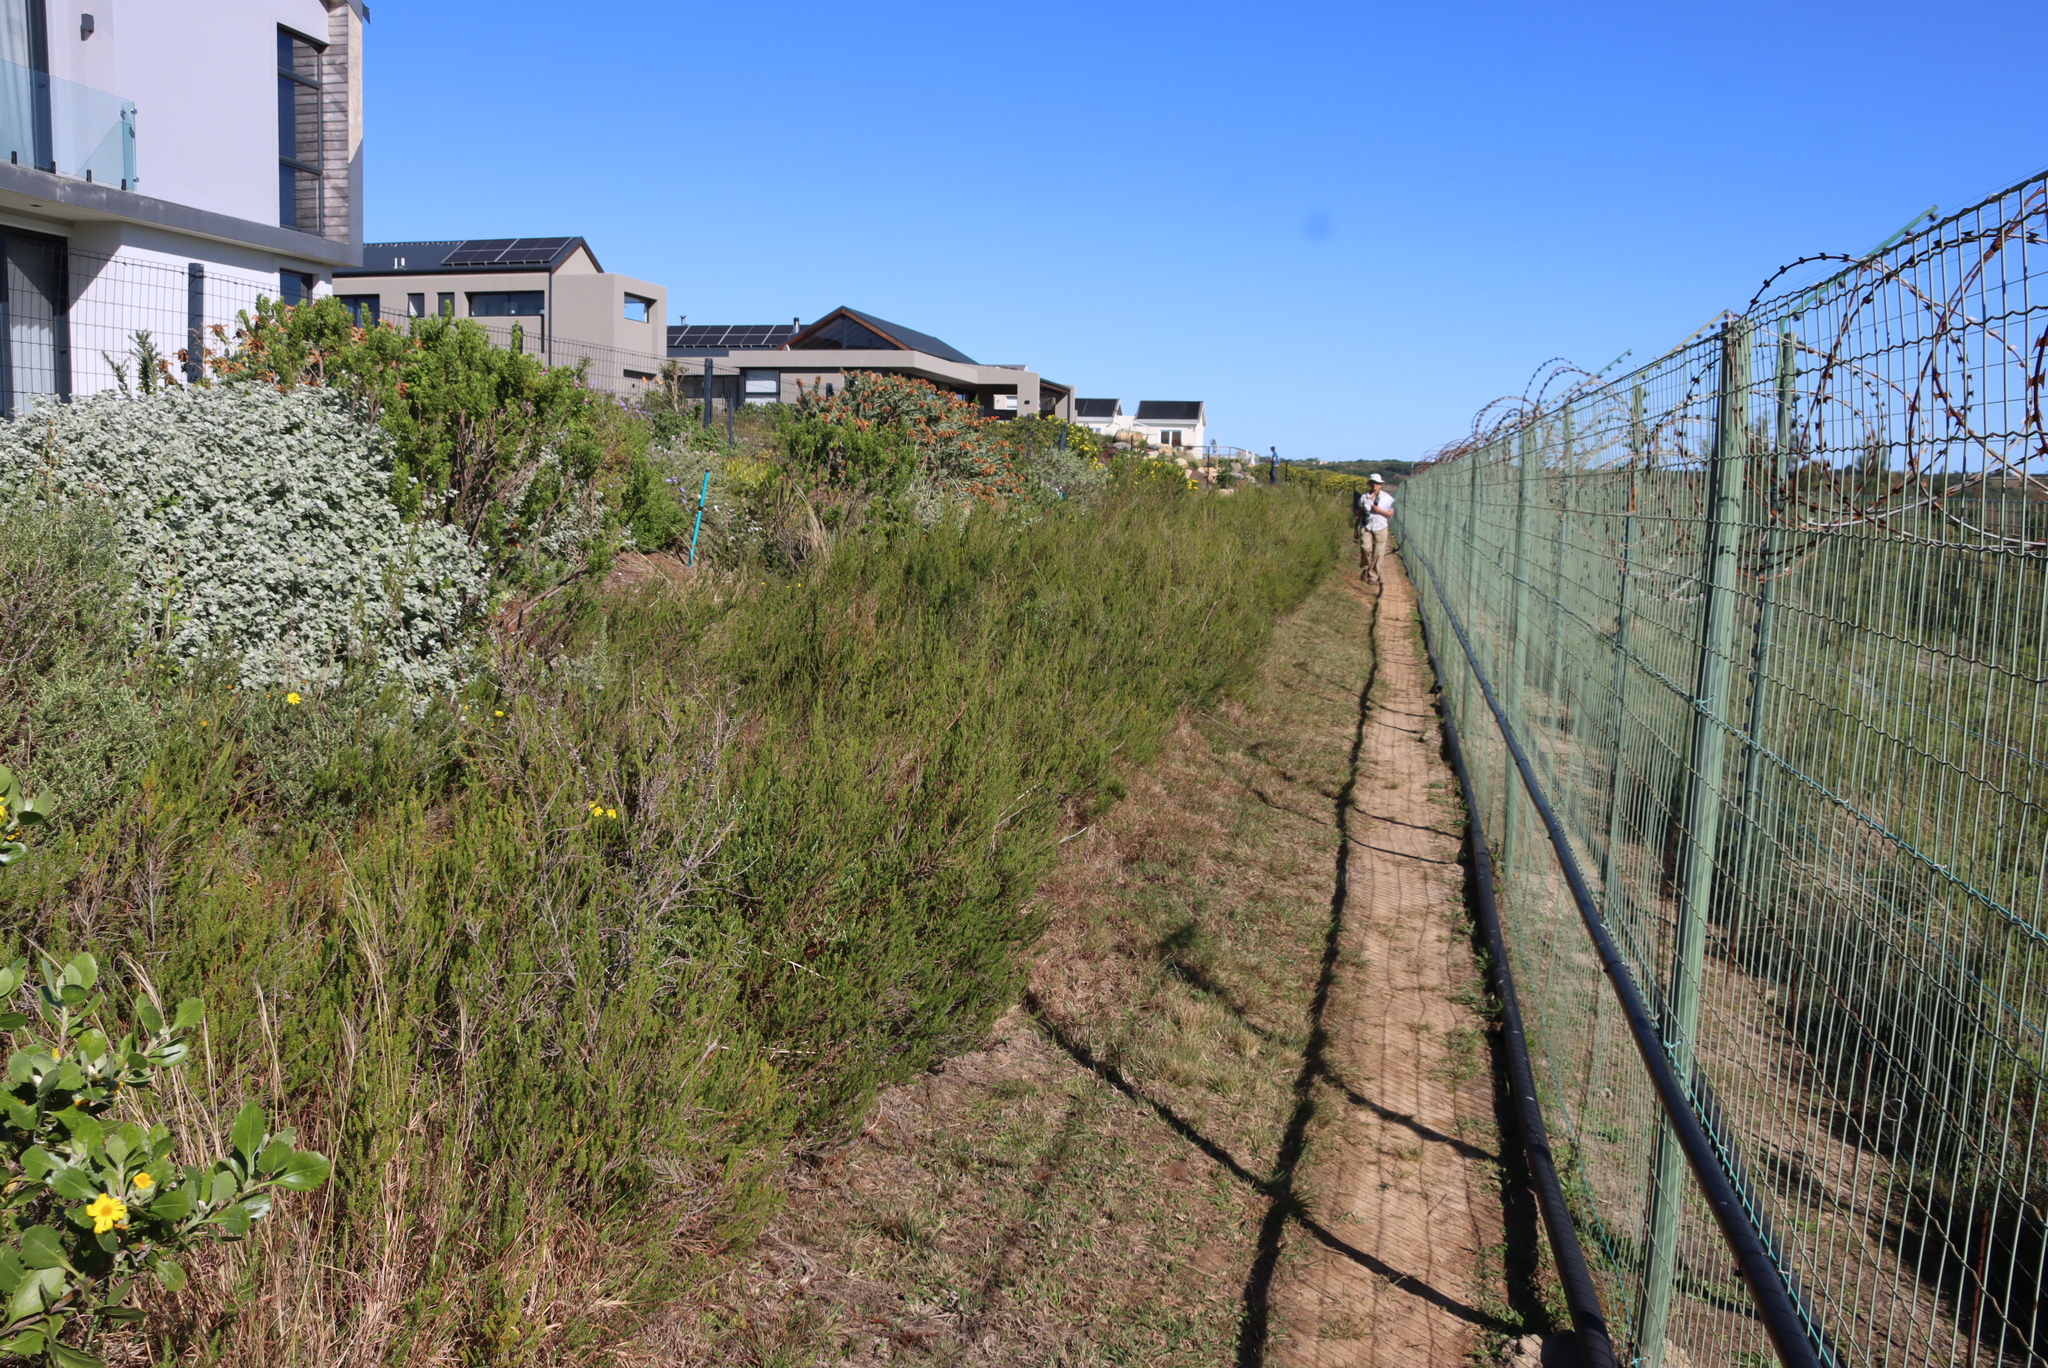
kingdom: Plantae
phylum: Tracheophyta
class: Magnoliopsida
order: Rosales
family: Rosaceae
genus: Cliffortia
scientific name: Cliffortia linearifolia
